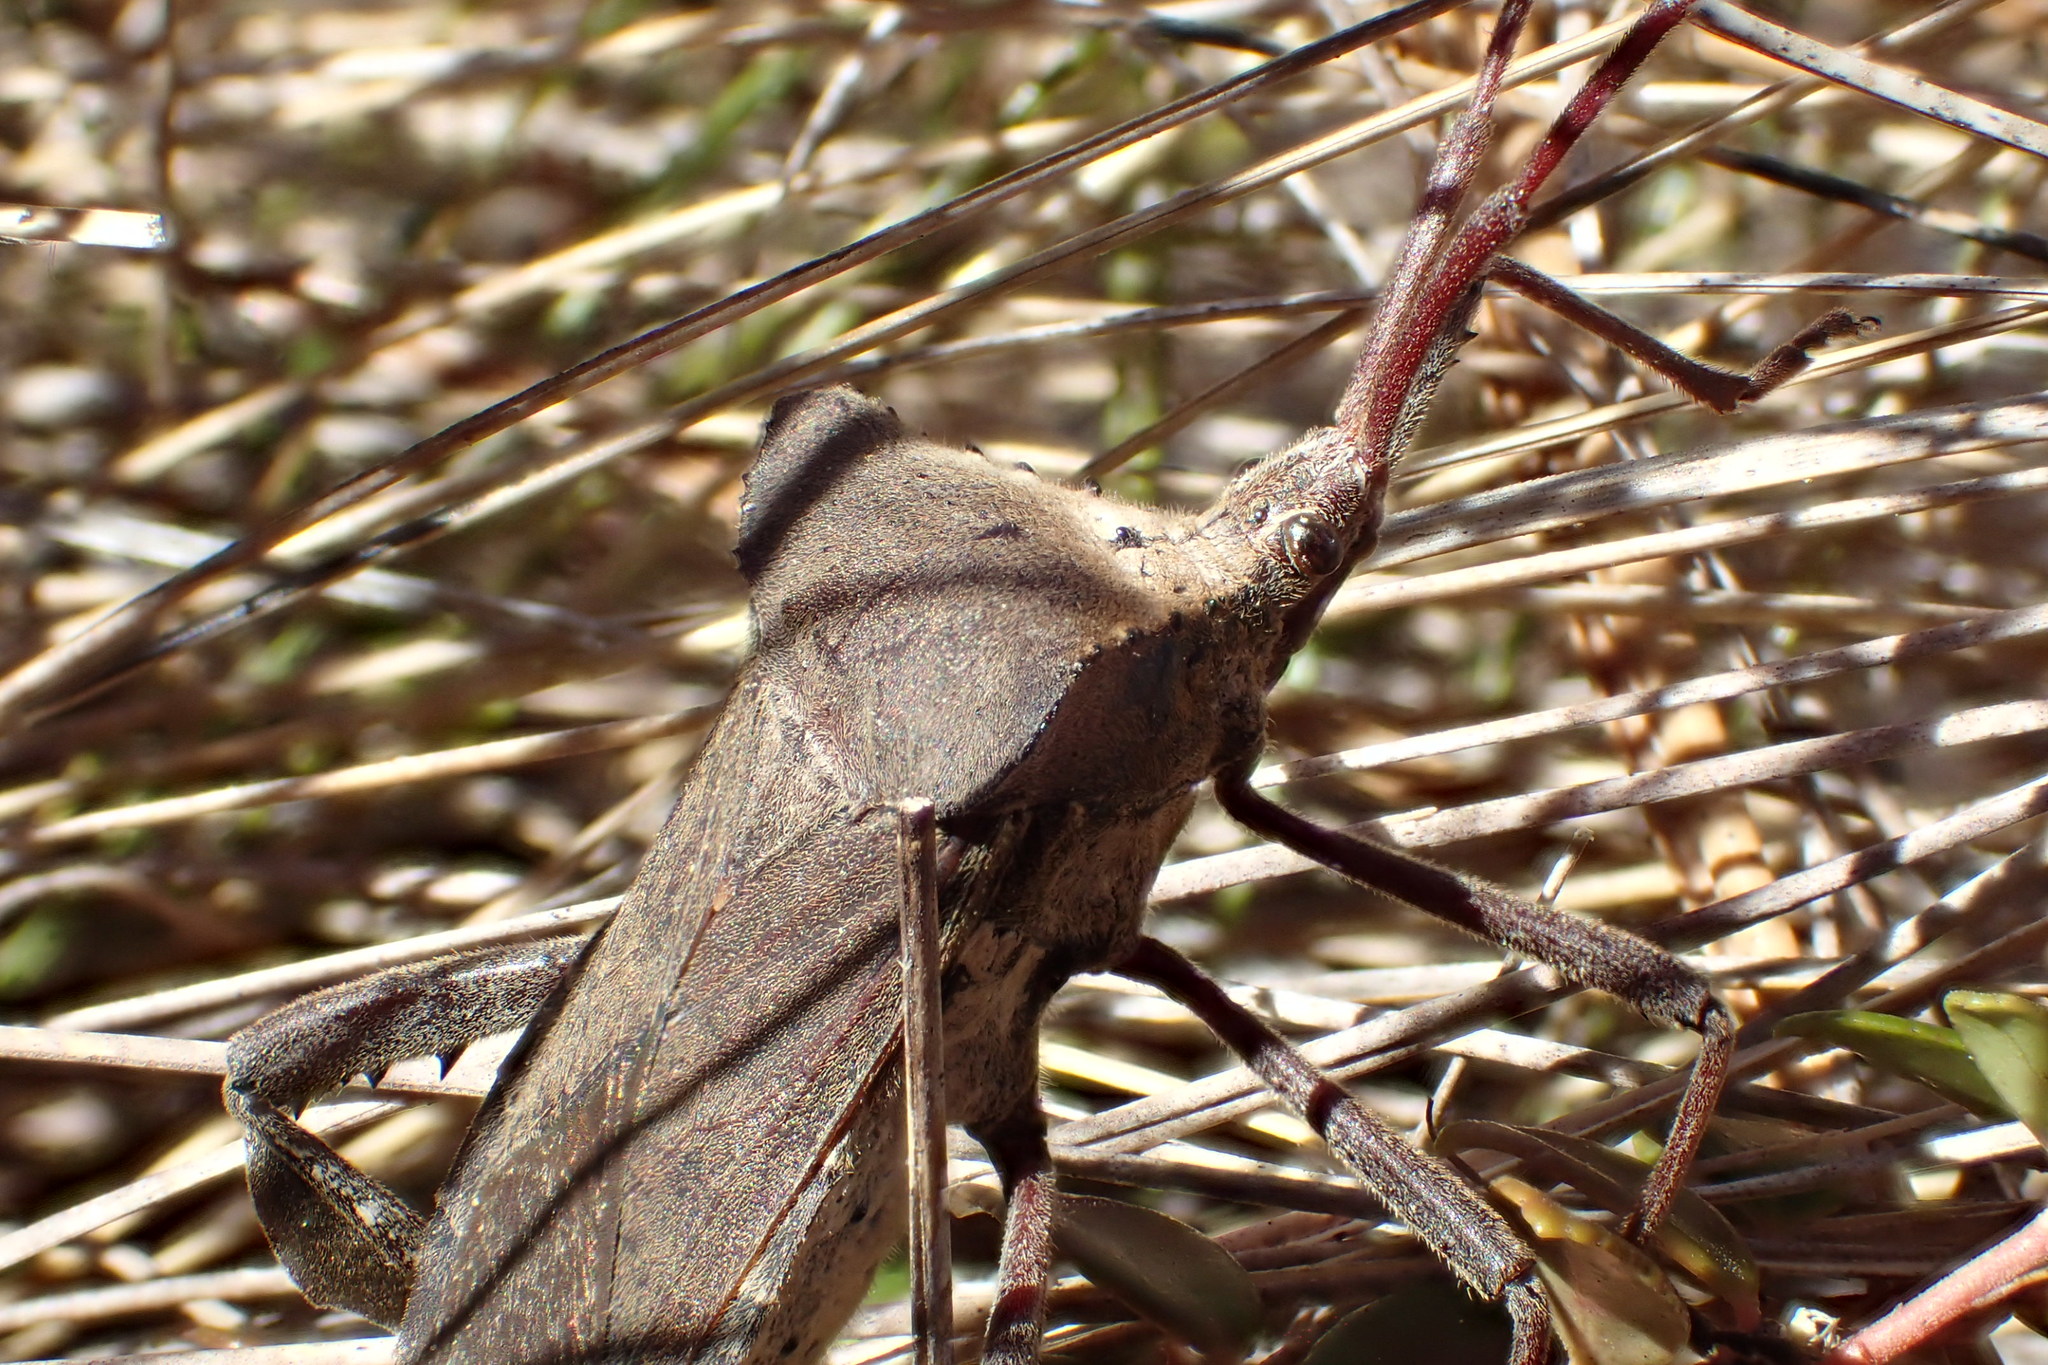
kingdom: Animalia
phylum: Arthropoda
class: Insecta
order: Hemiptera
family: Coreidae
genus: Acanthocephala
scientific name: Acanthocephala declivis
